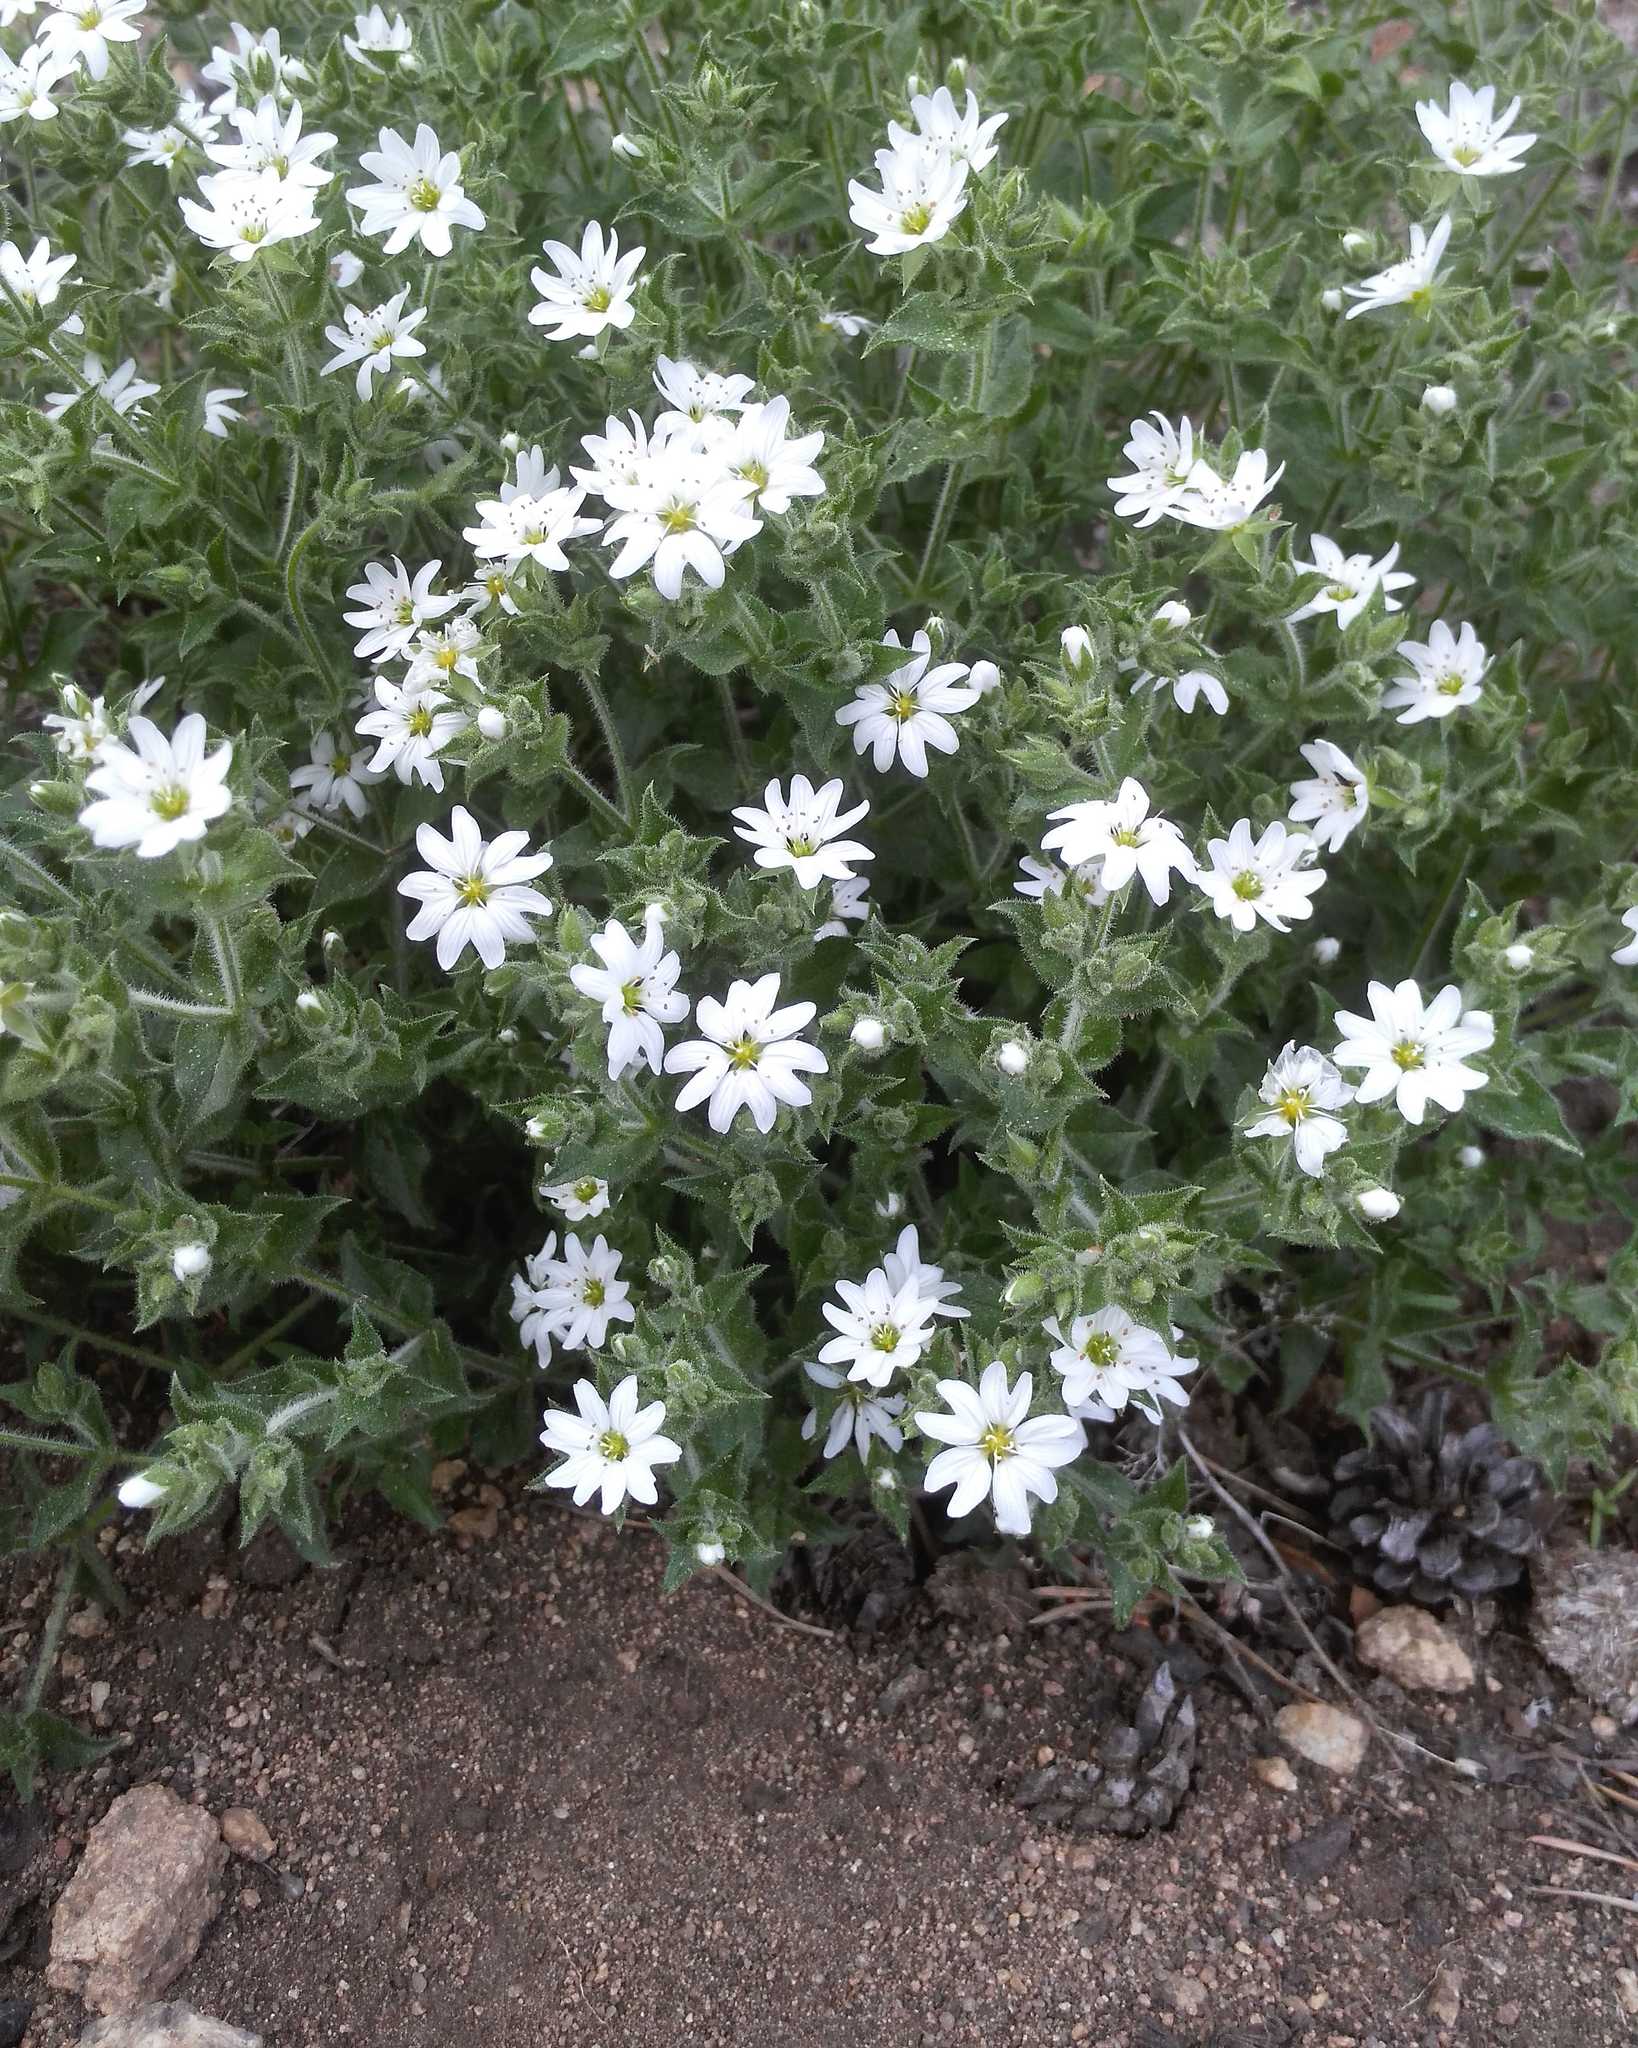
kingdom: Plantae
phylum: Tracheophyta
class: Magnoliopsida
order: Caryophyllales
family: Caryophyllaceae
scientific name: Caryophyllaceae
